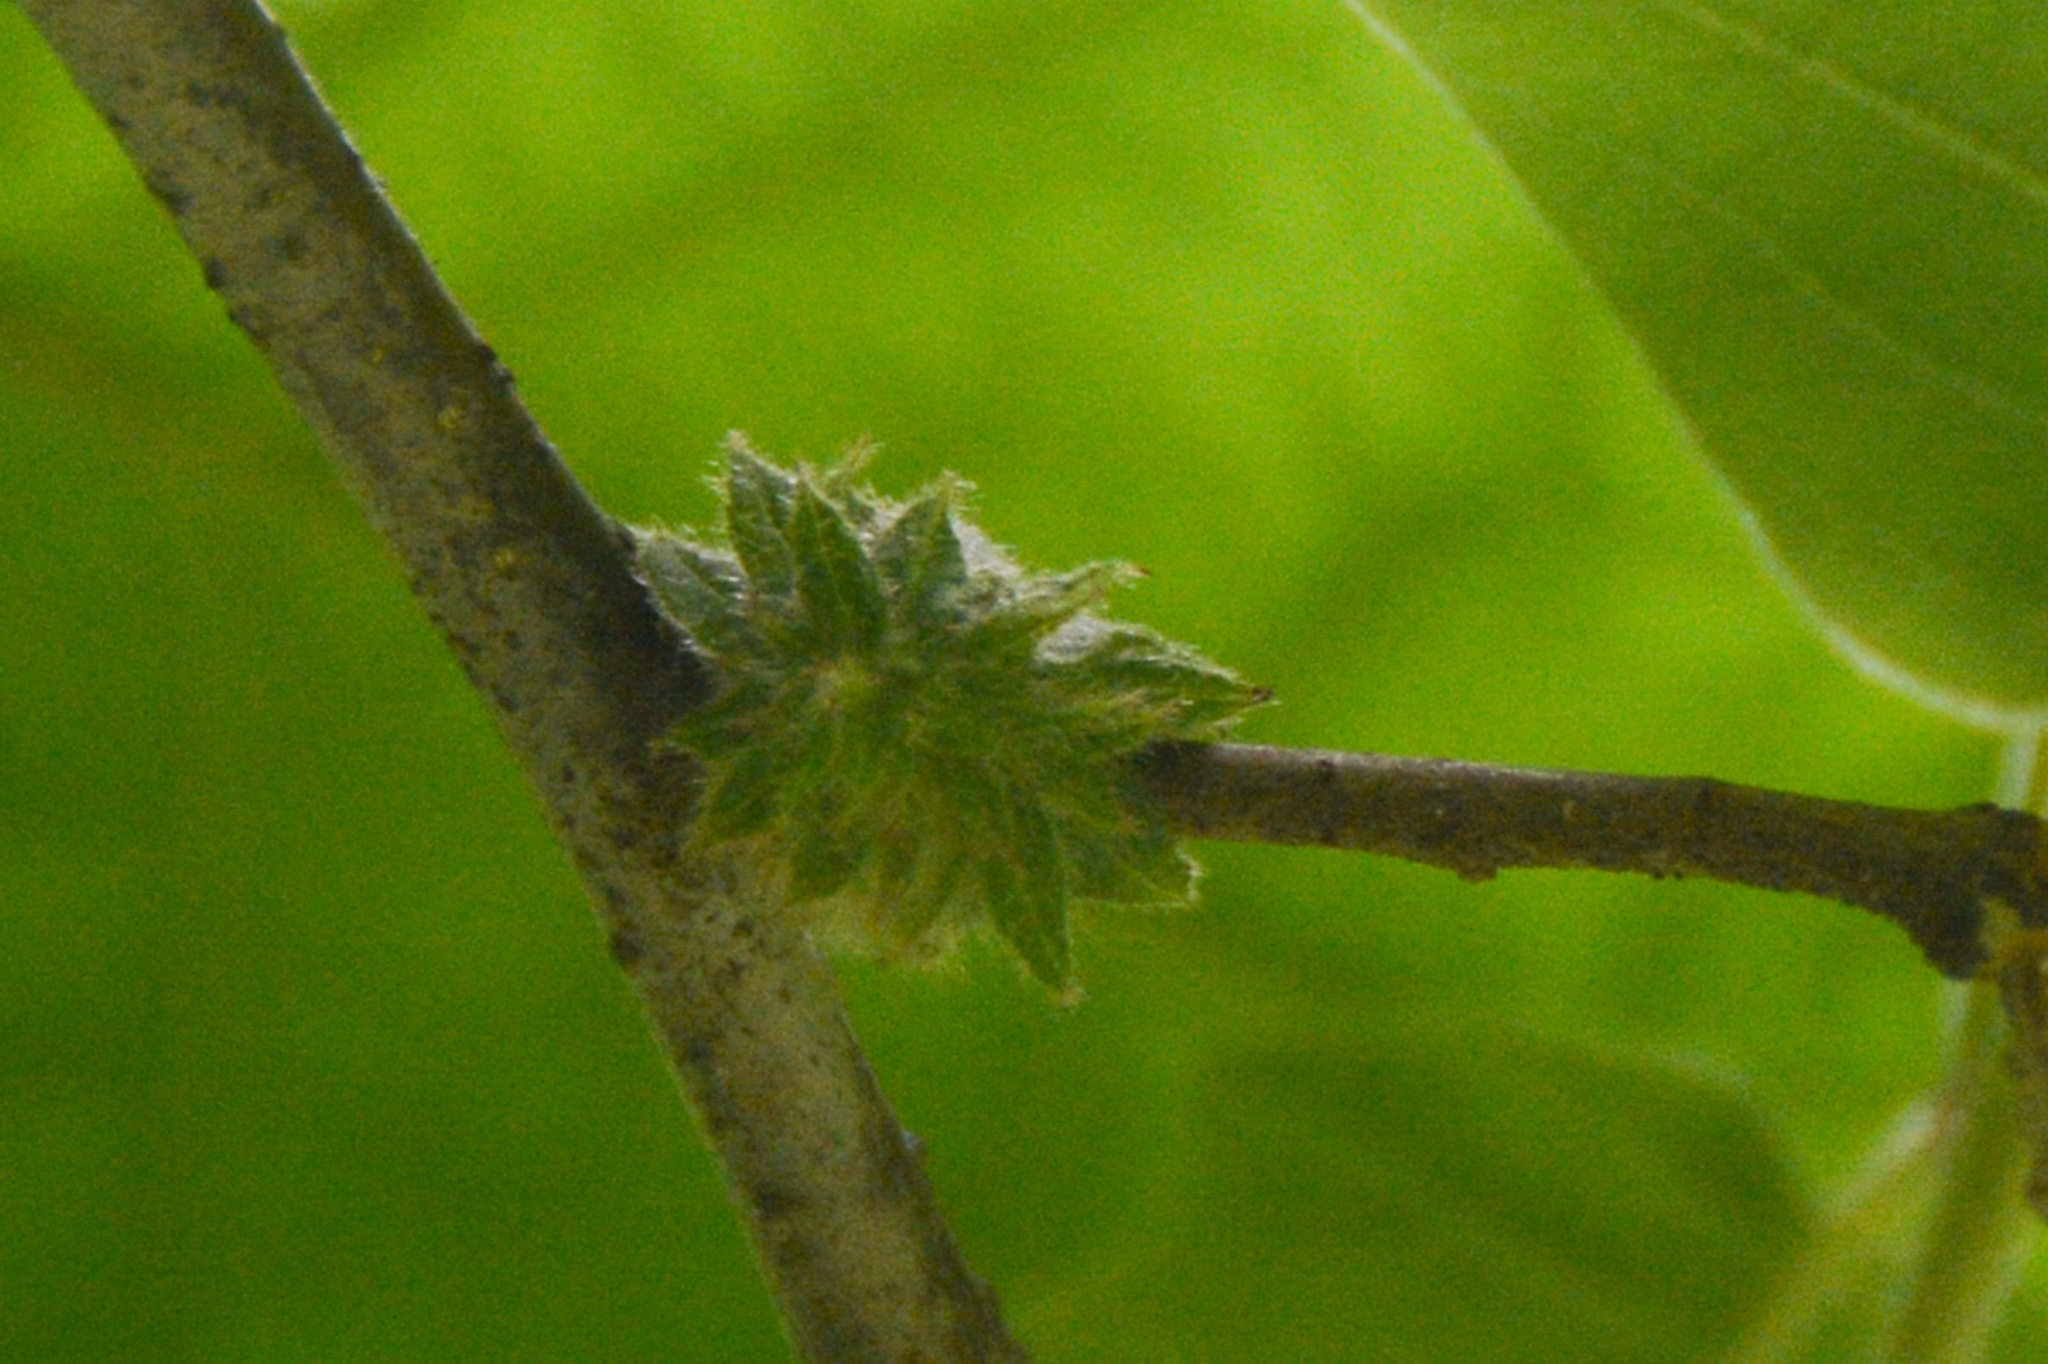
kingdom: Animalia
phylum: Arthropoda
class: Insecta
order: Hymenoptera
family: Cynipidae
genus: Dryocosmus
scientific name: Dryocosmus
